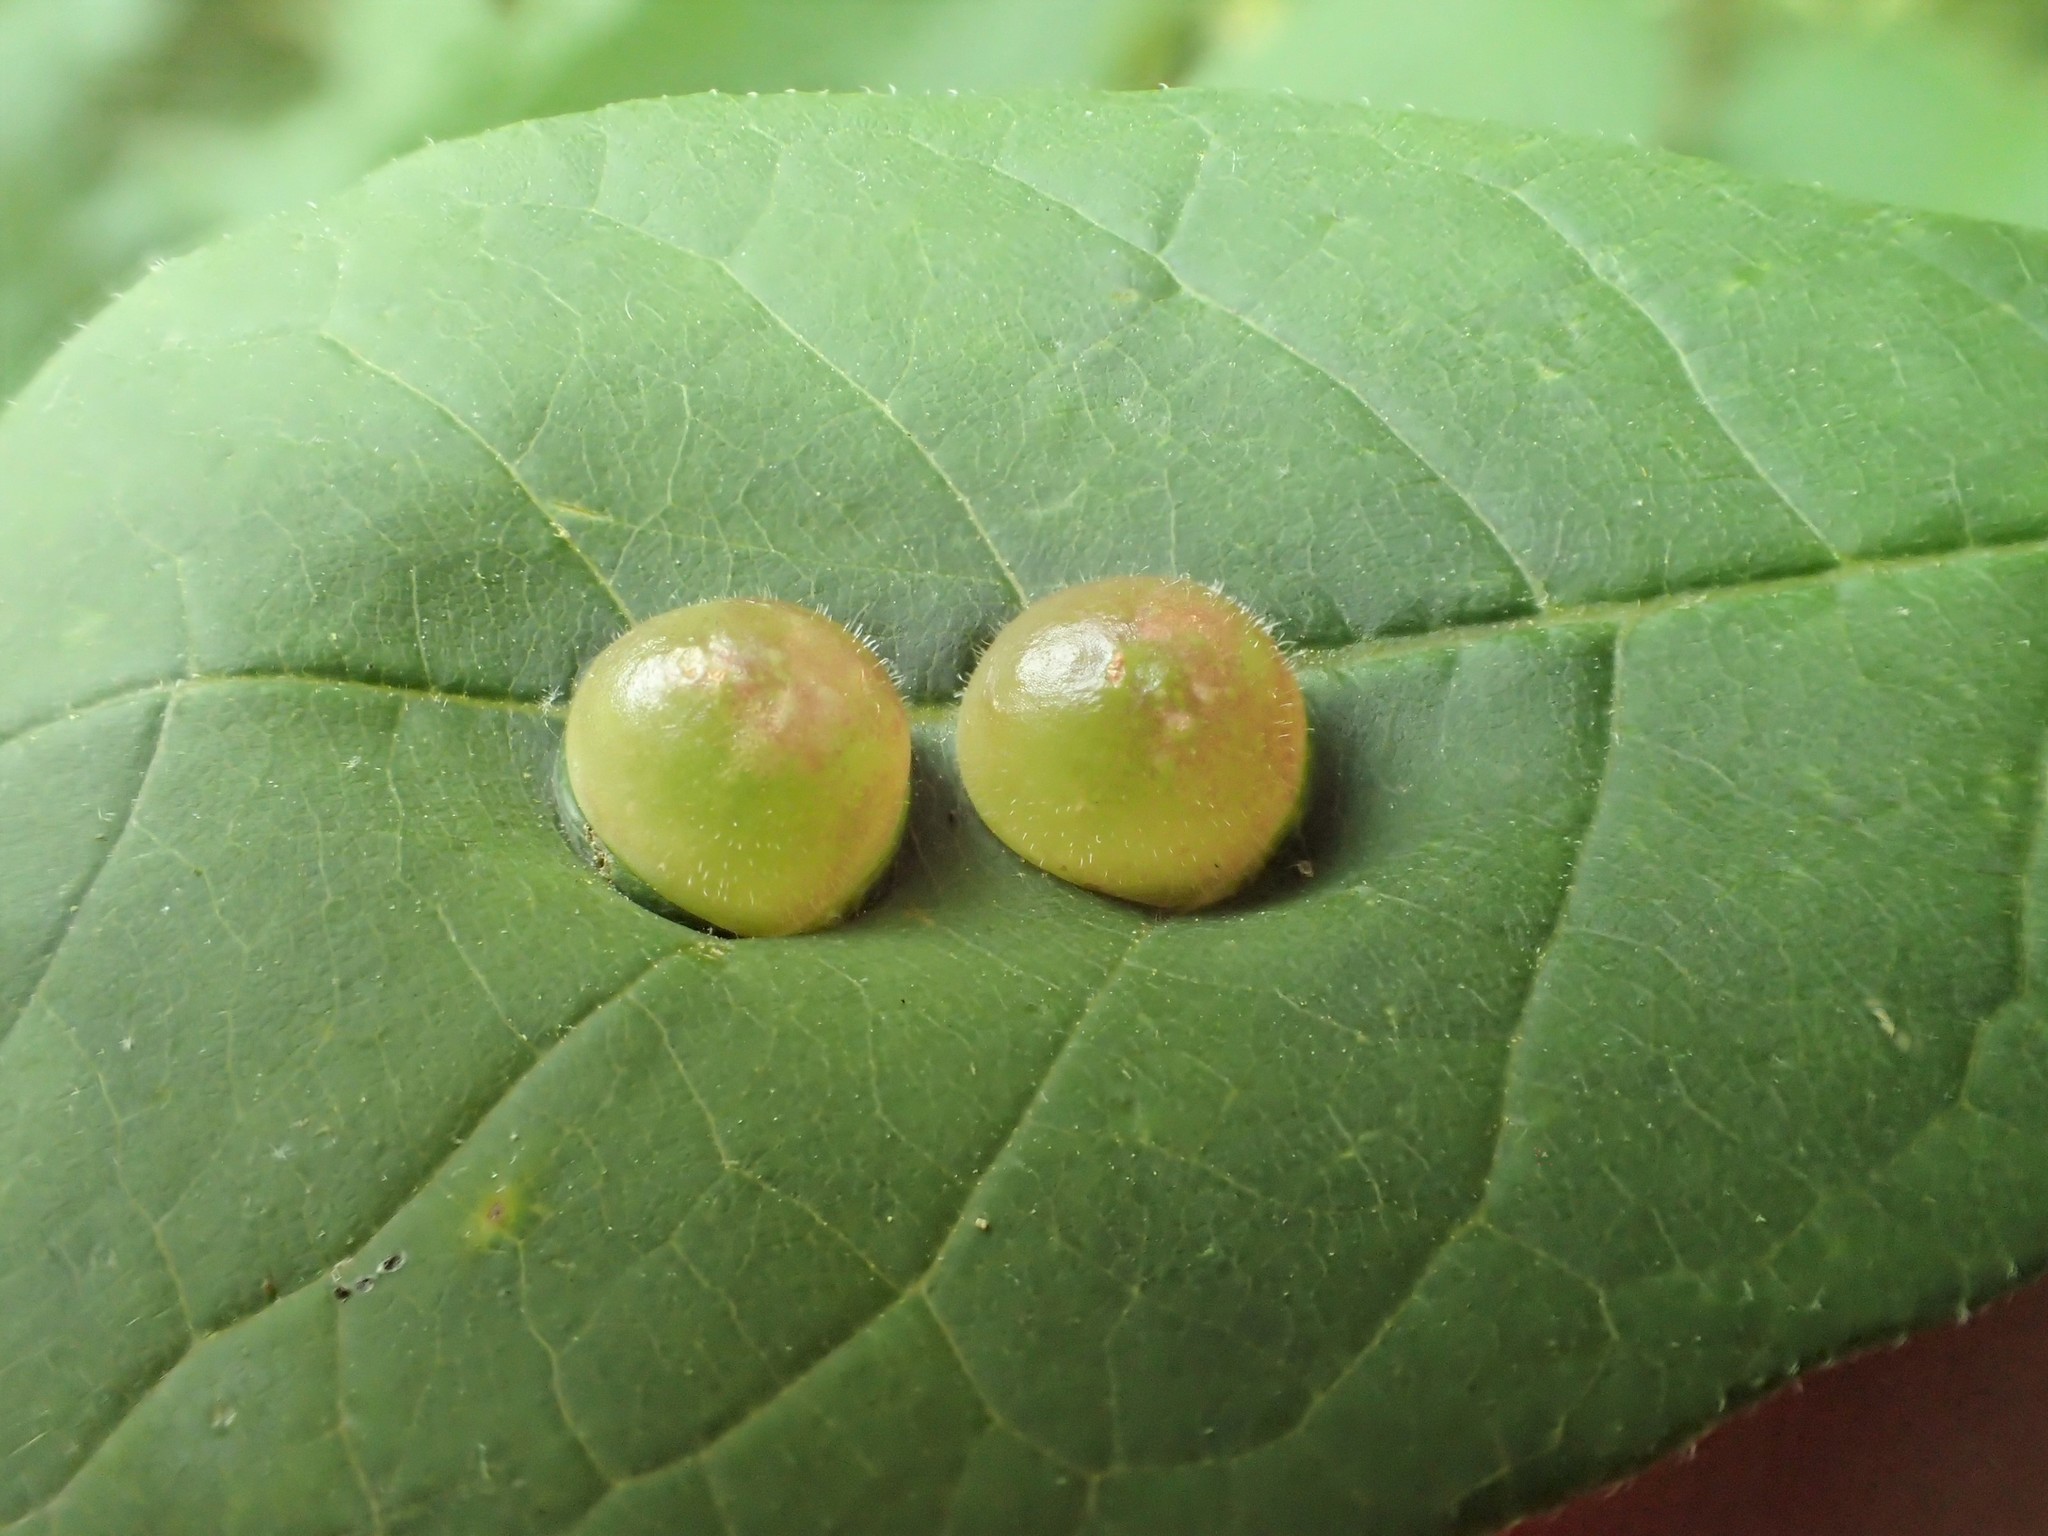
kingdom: Animalia
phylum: Arthropoda
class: Insecta
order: Diptera
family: Cecidomyiidae
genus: Dasineura
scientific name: Dasineura pellex
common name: Ash bullet gall midge
